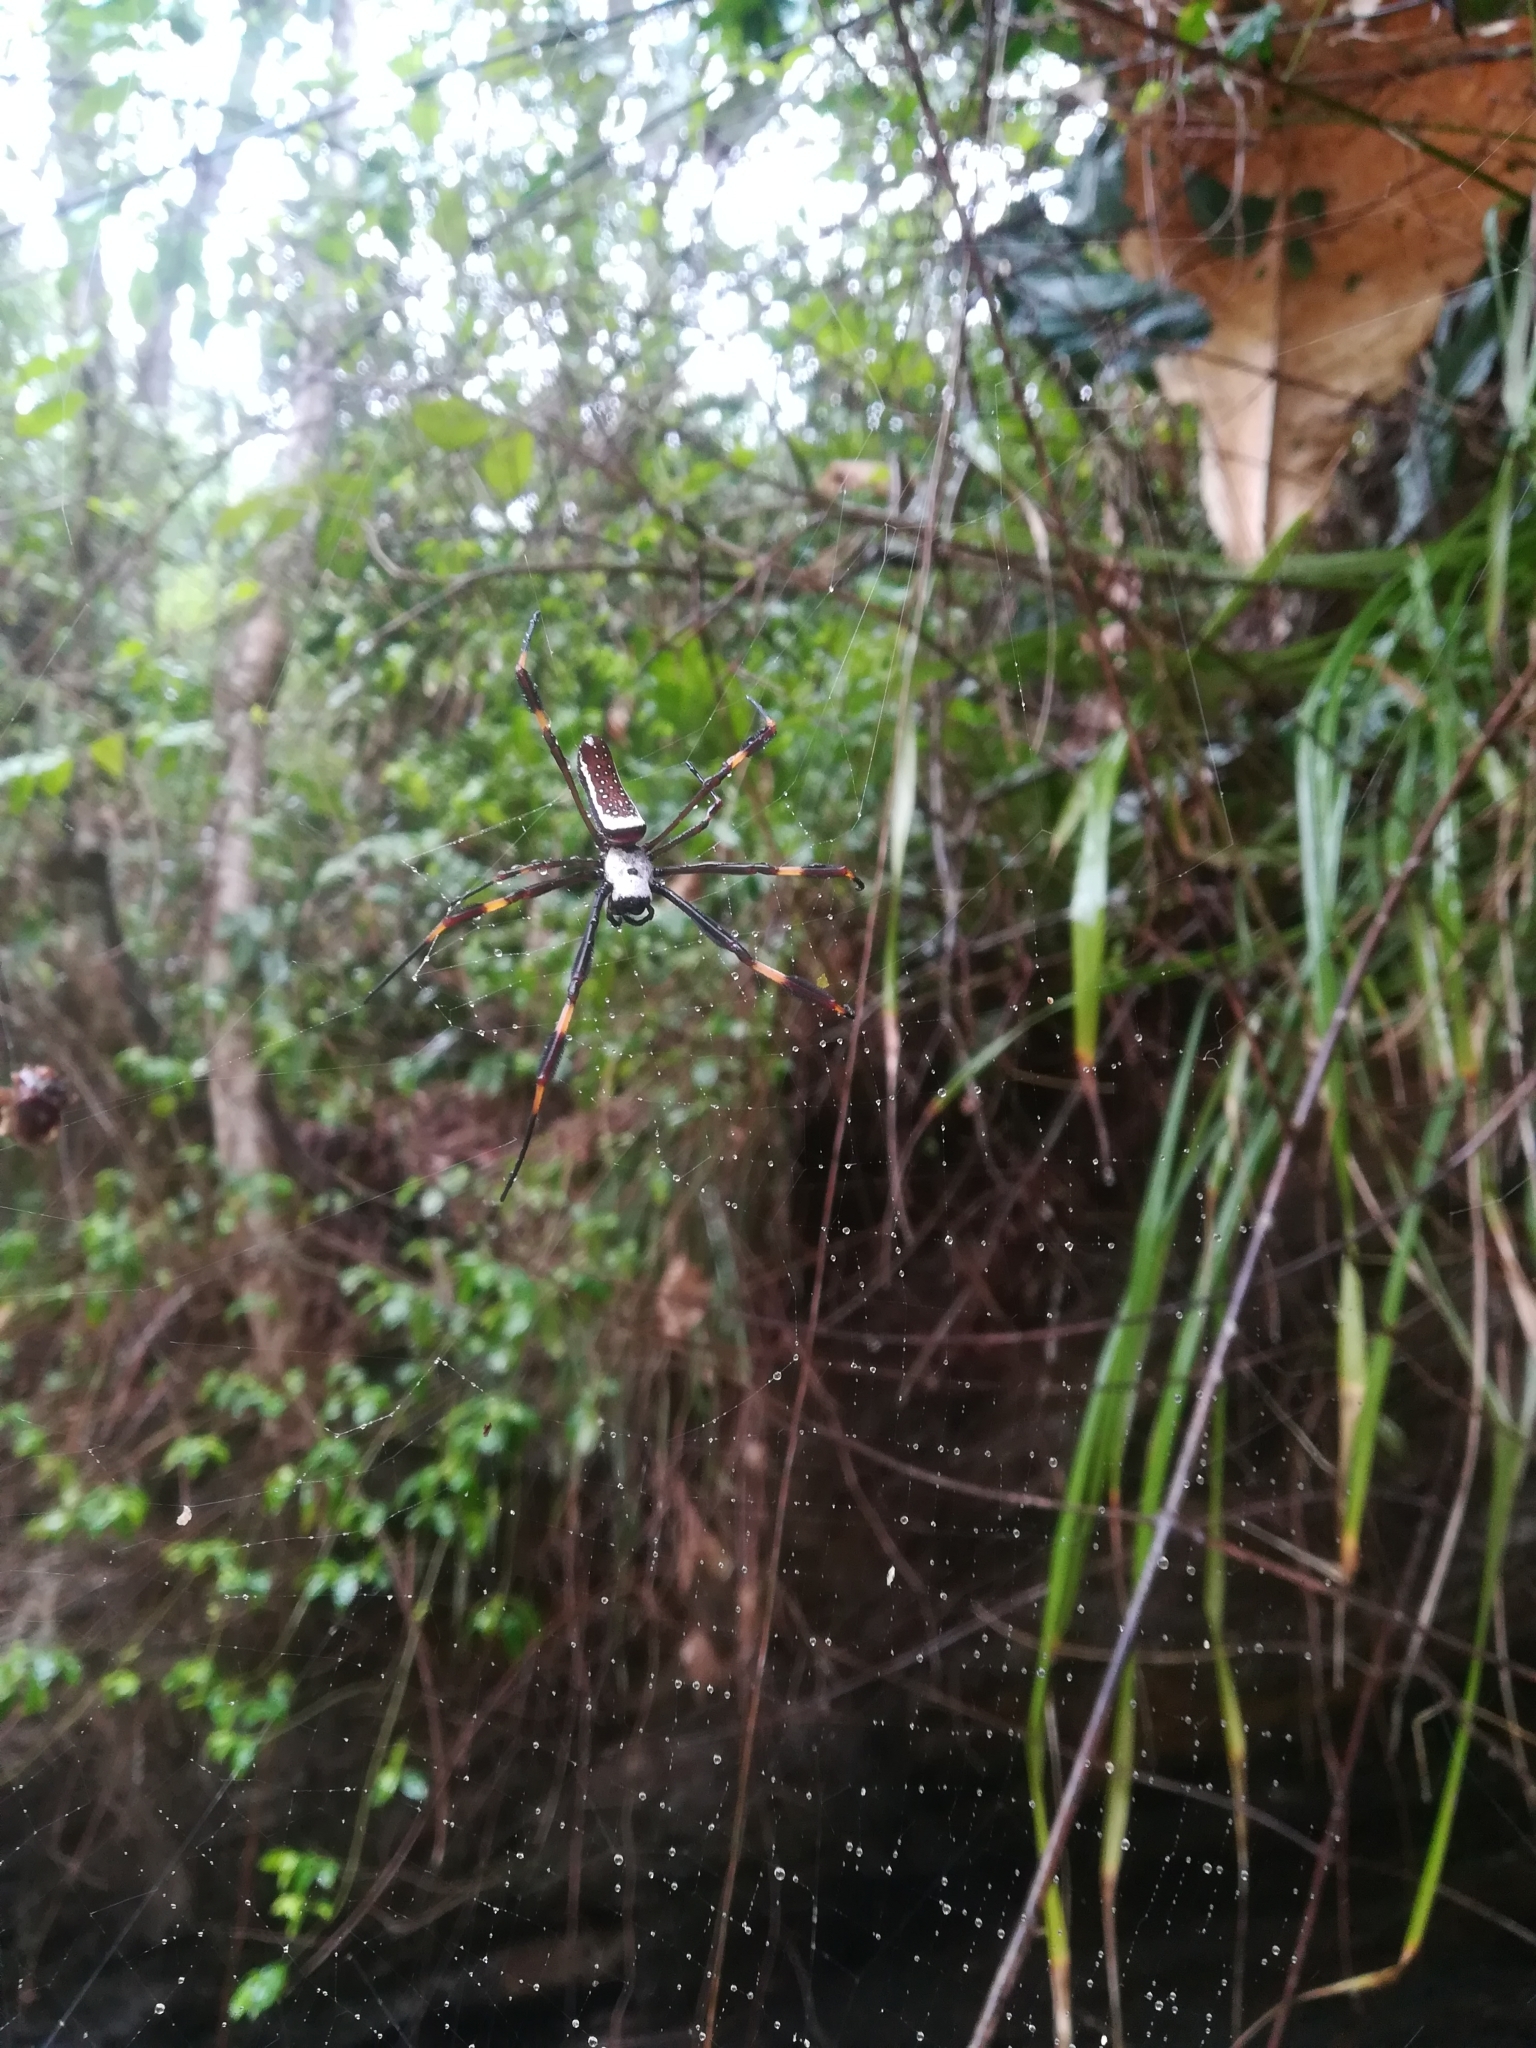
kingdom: Animalia
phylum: Arthropoda
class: Arachnida
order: Araneae
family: Araneidae
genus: Trichonephila
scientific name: Trichonephila clavipes
